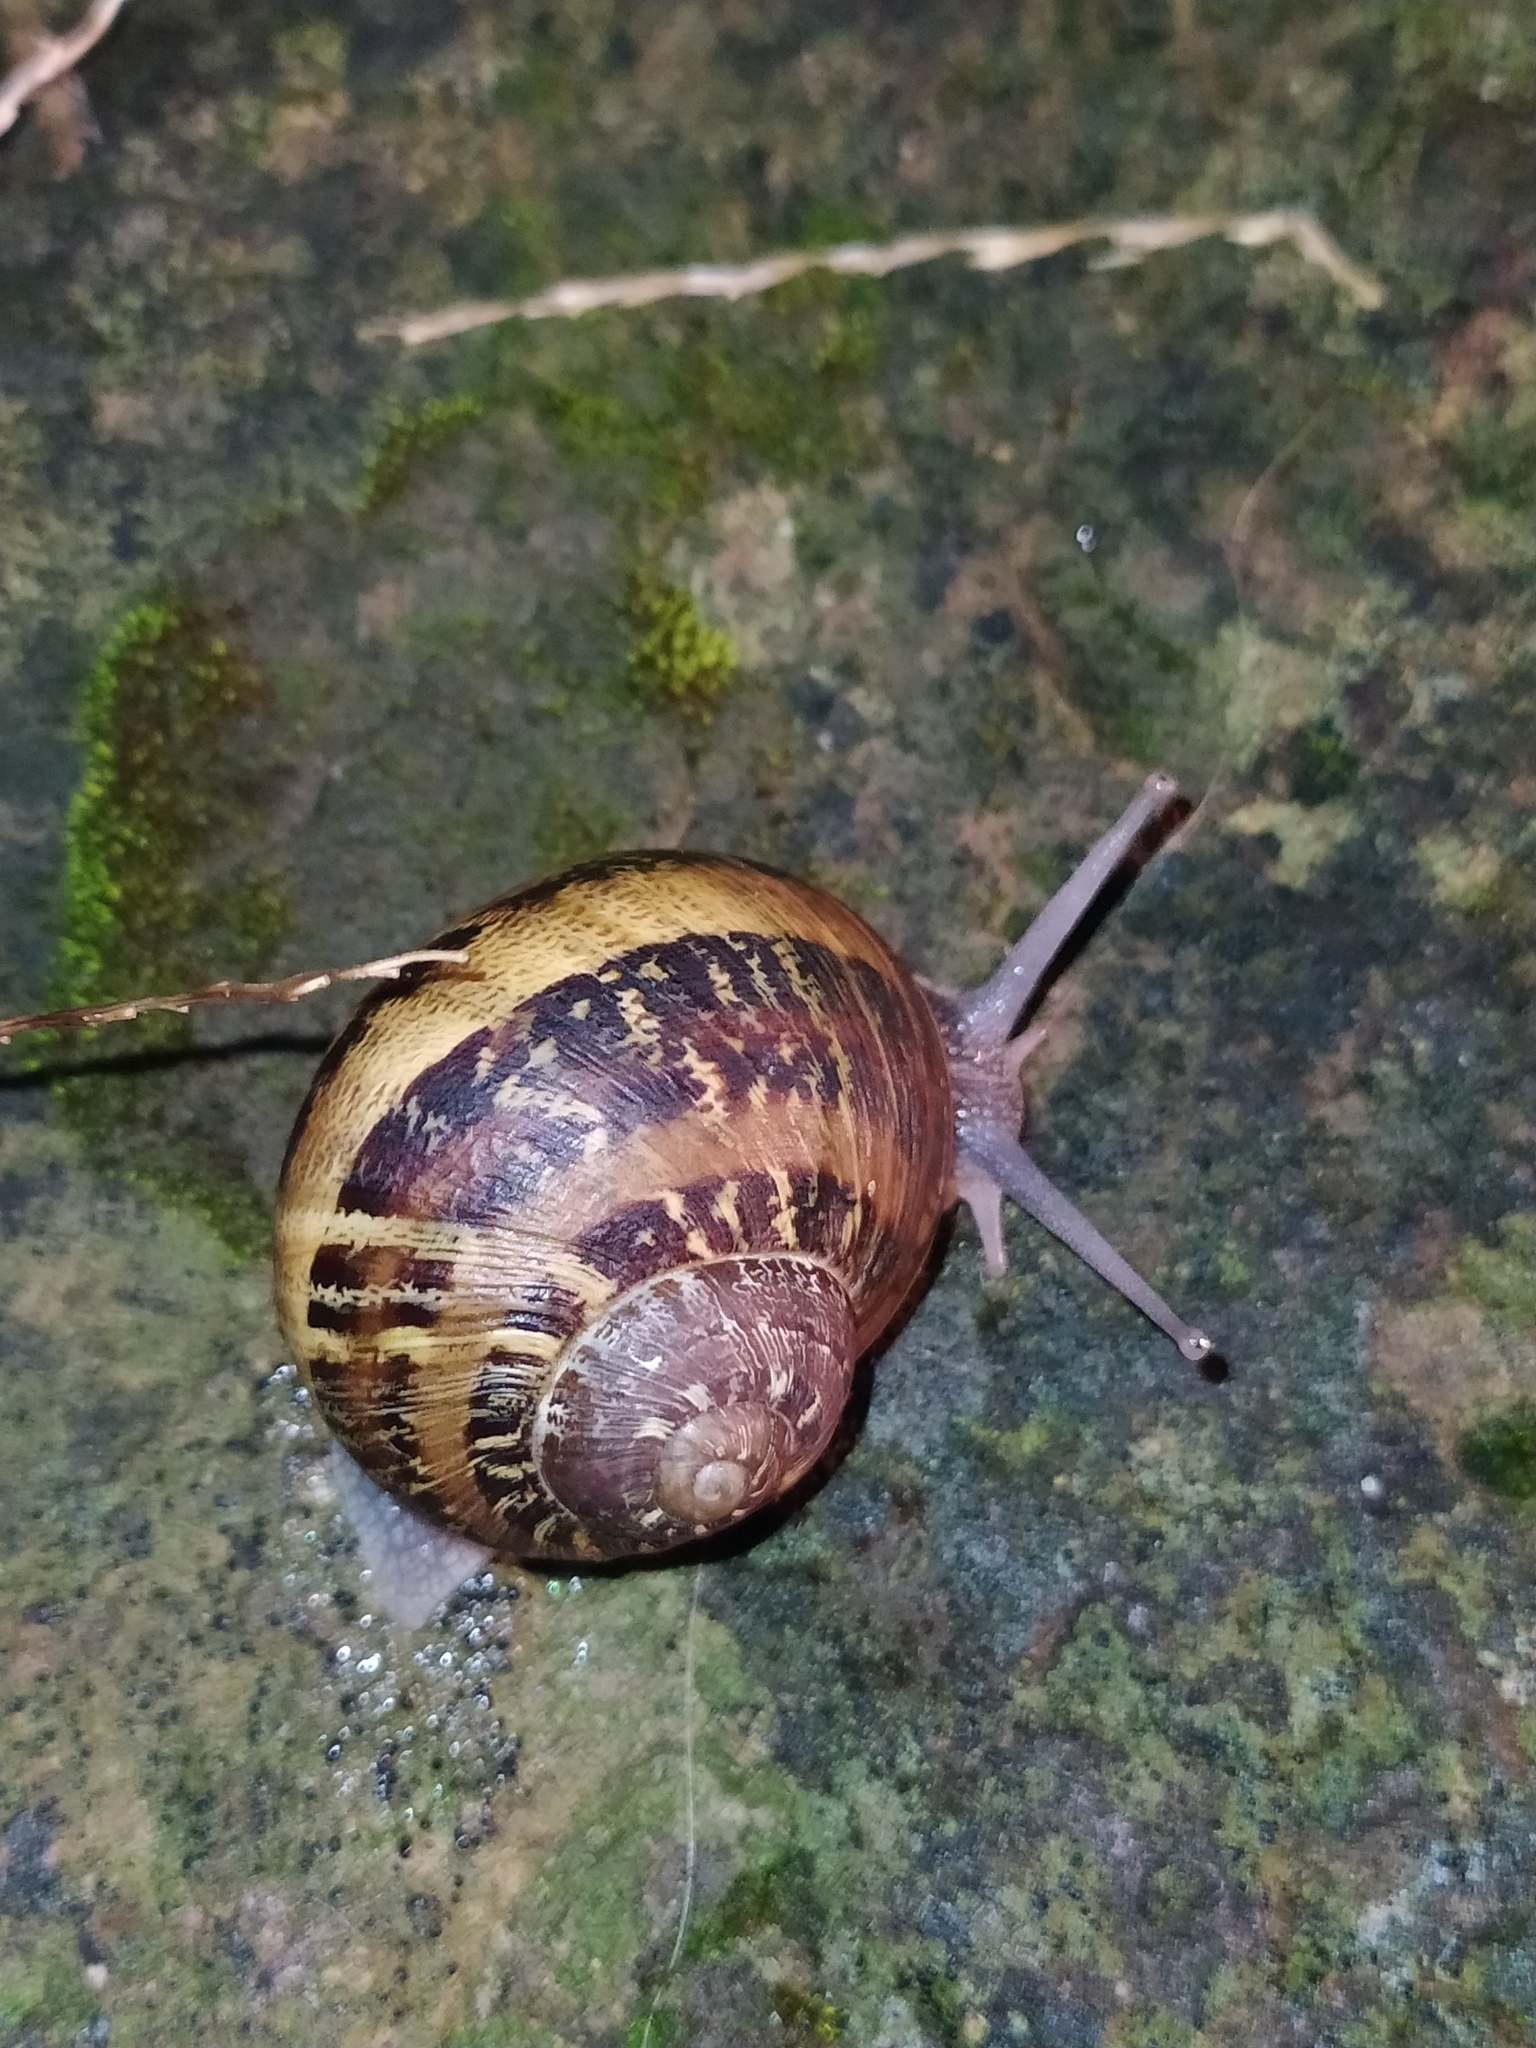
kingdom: Animalia
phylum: Mollusca
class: Gastropoda
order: Stylommatophora
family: Helicidae
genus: Cornu
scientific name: Cornu aspersum
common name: Brown garden snail
